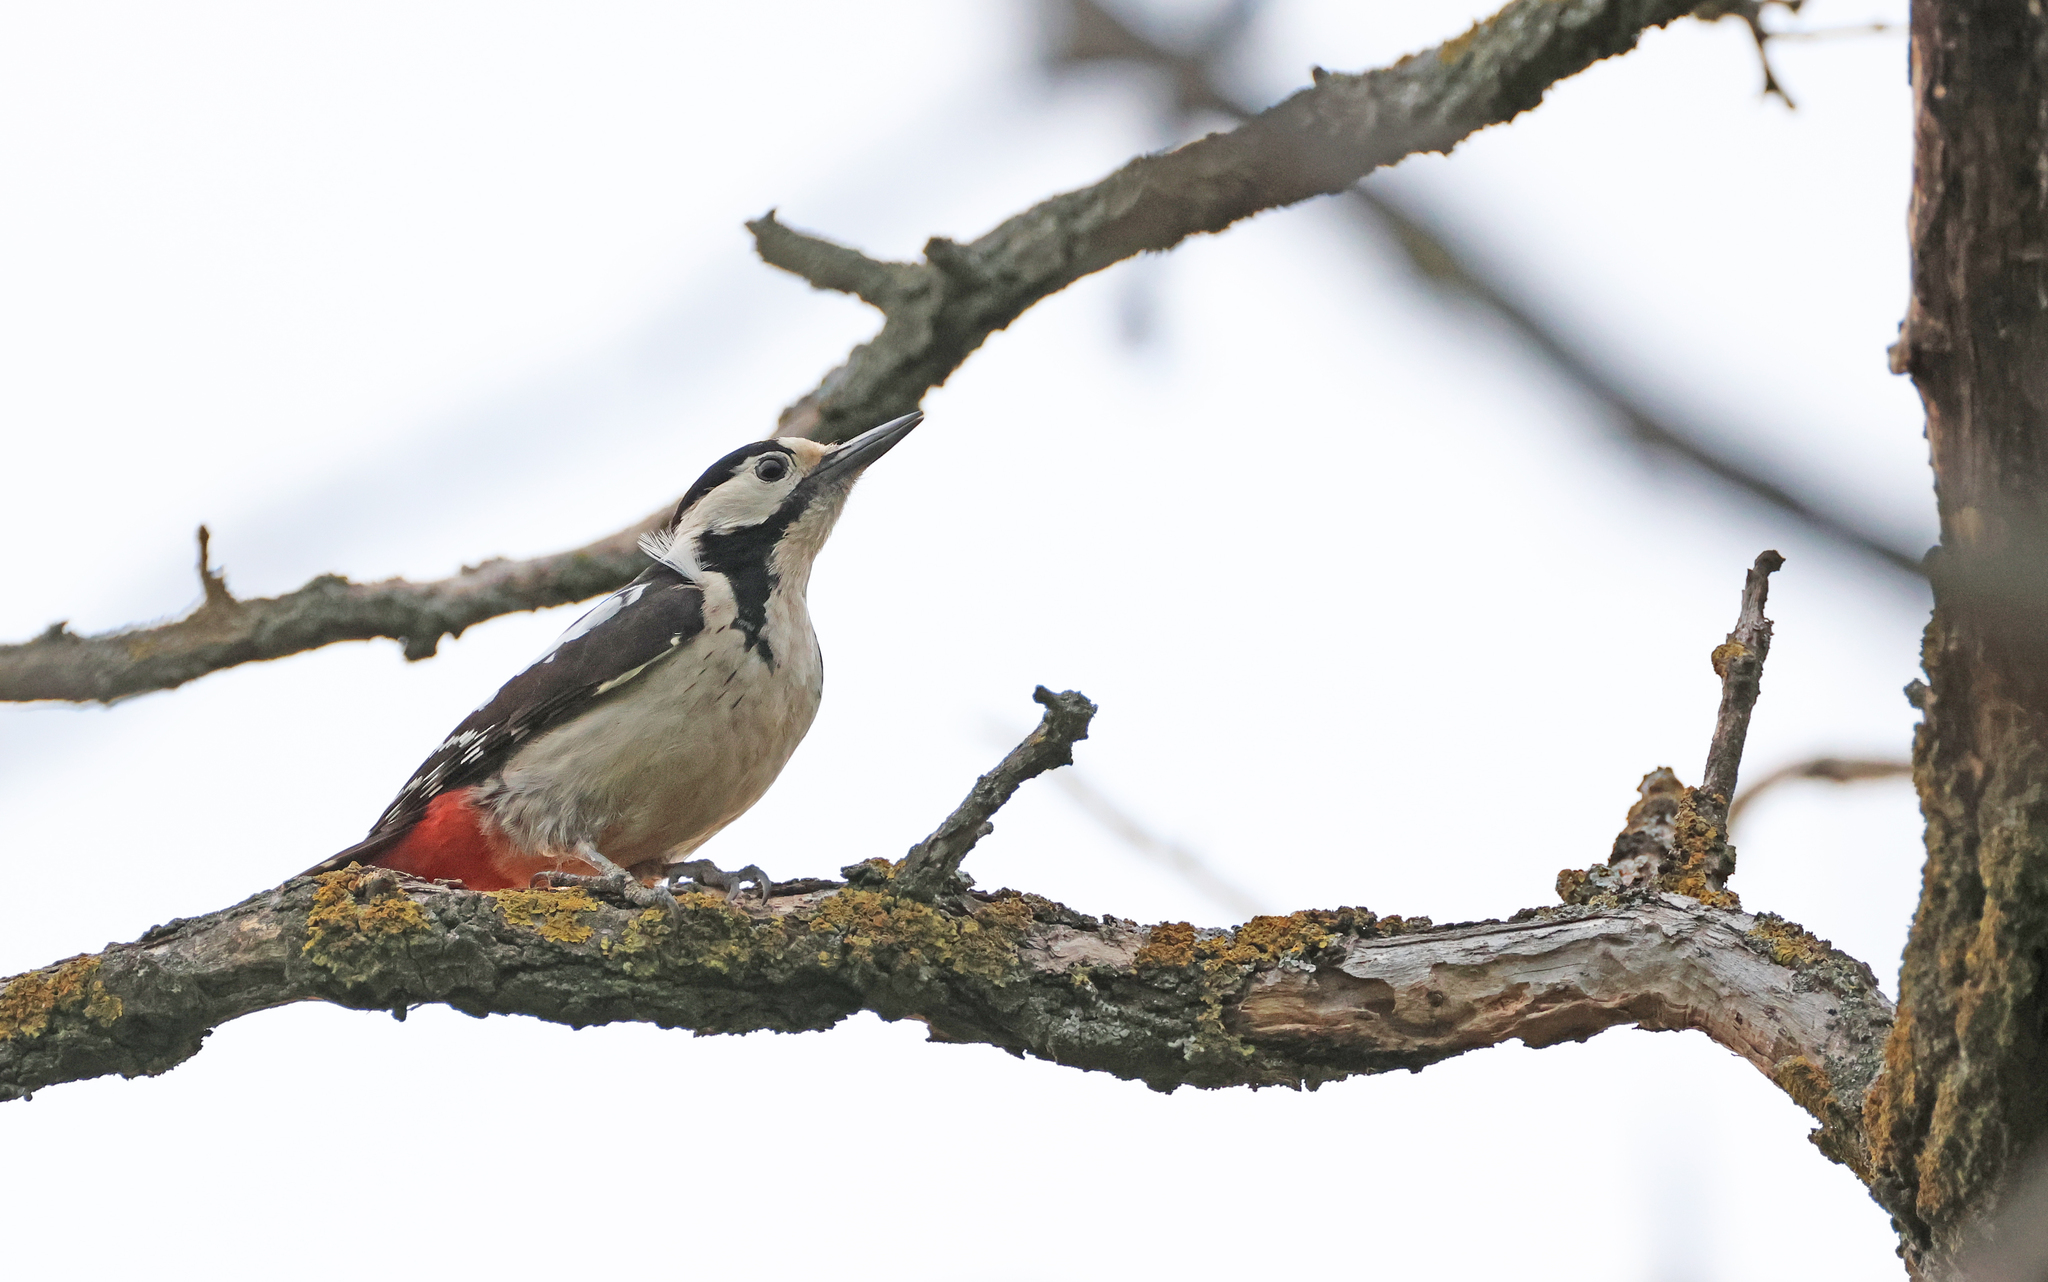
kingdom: Animalia
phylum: Chordata
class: Aves
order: Piciformes
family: Picidae
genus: Dendrocopos
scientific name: Dendrocopos syriacus
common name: Syrian woodpecker
